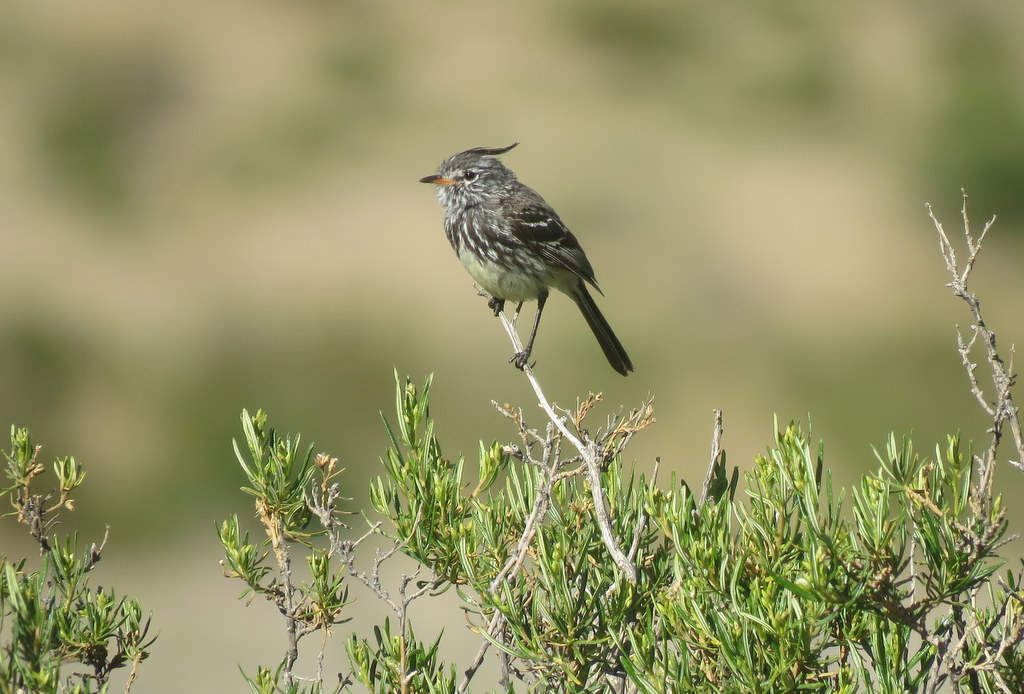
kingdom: Animalia
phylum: Chordata
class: Aves
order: Passeriformes
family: Tyrannidae
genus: Anairetes
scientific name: Anairetes flavirostris
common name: Yellow-billed tit-tyrant
